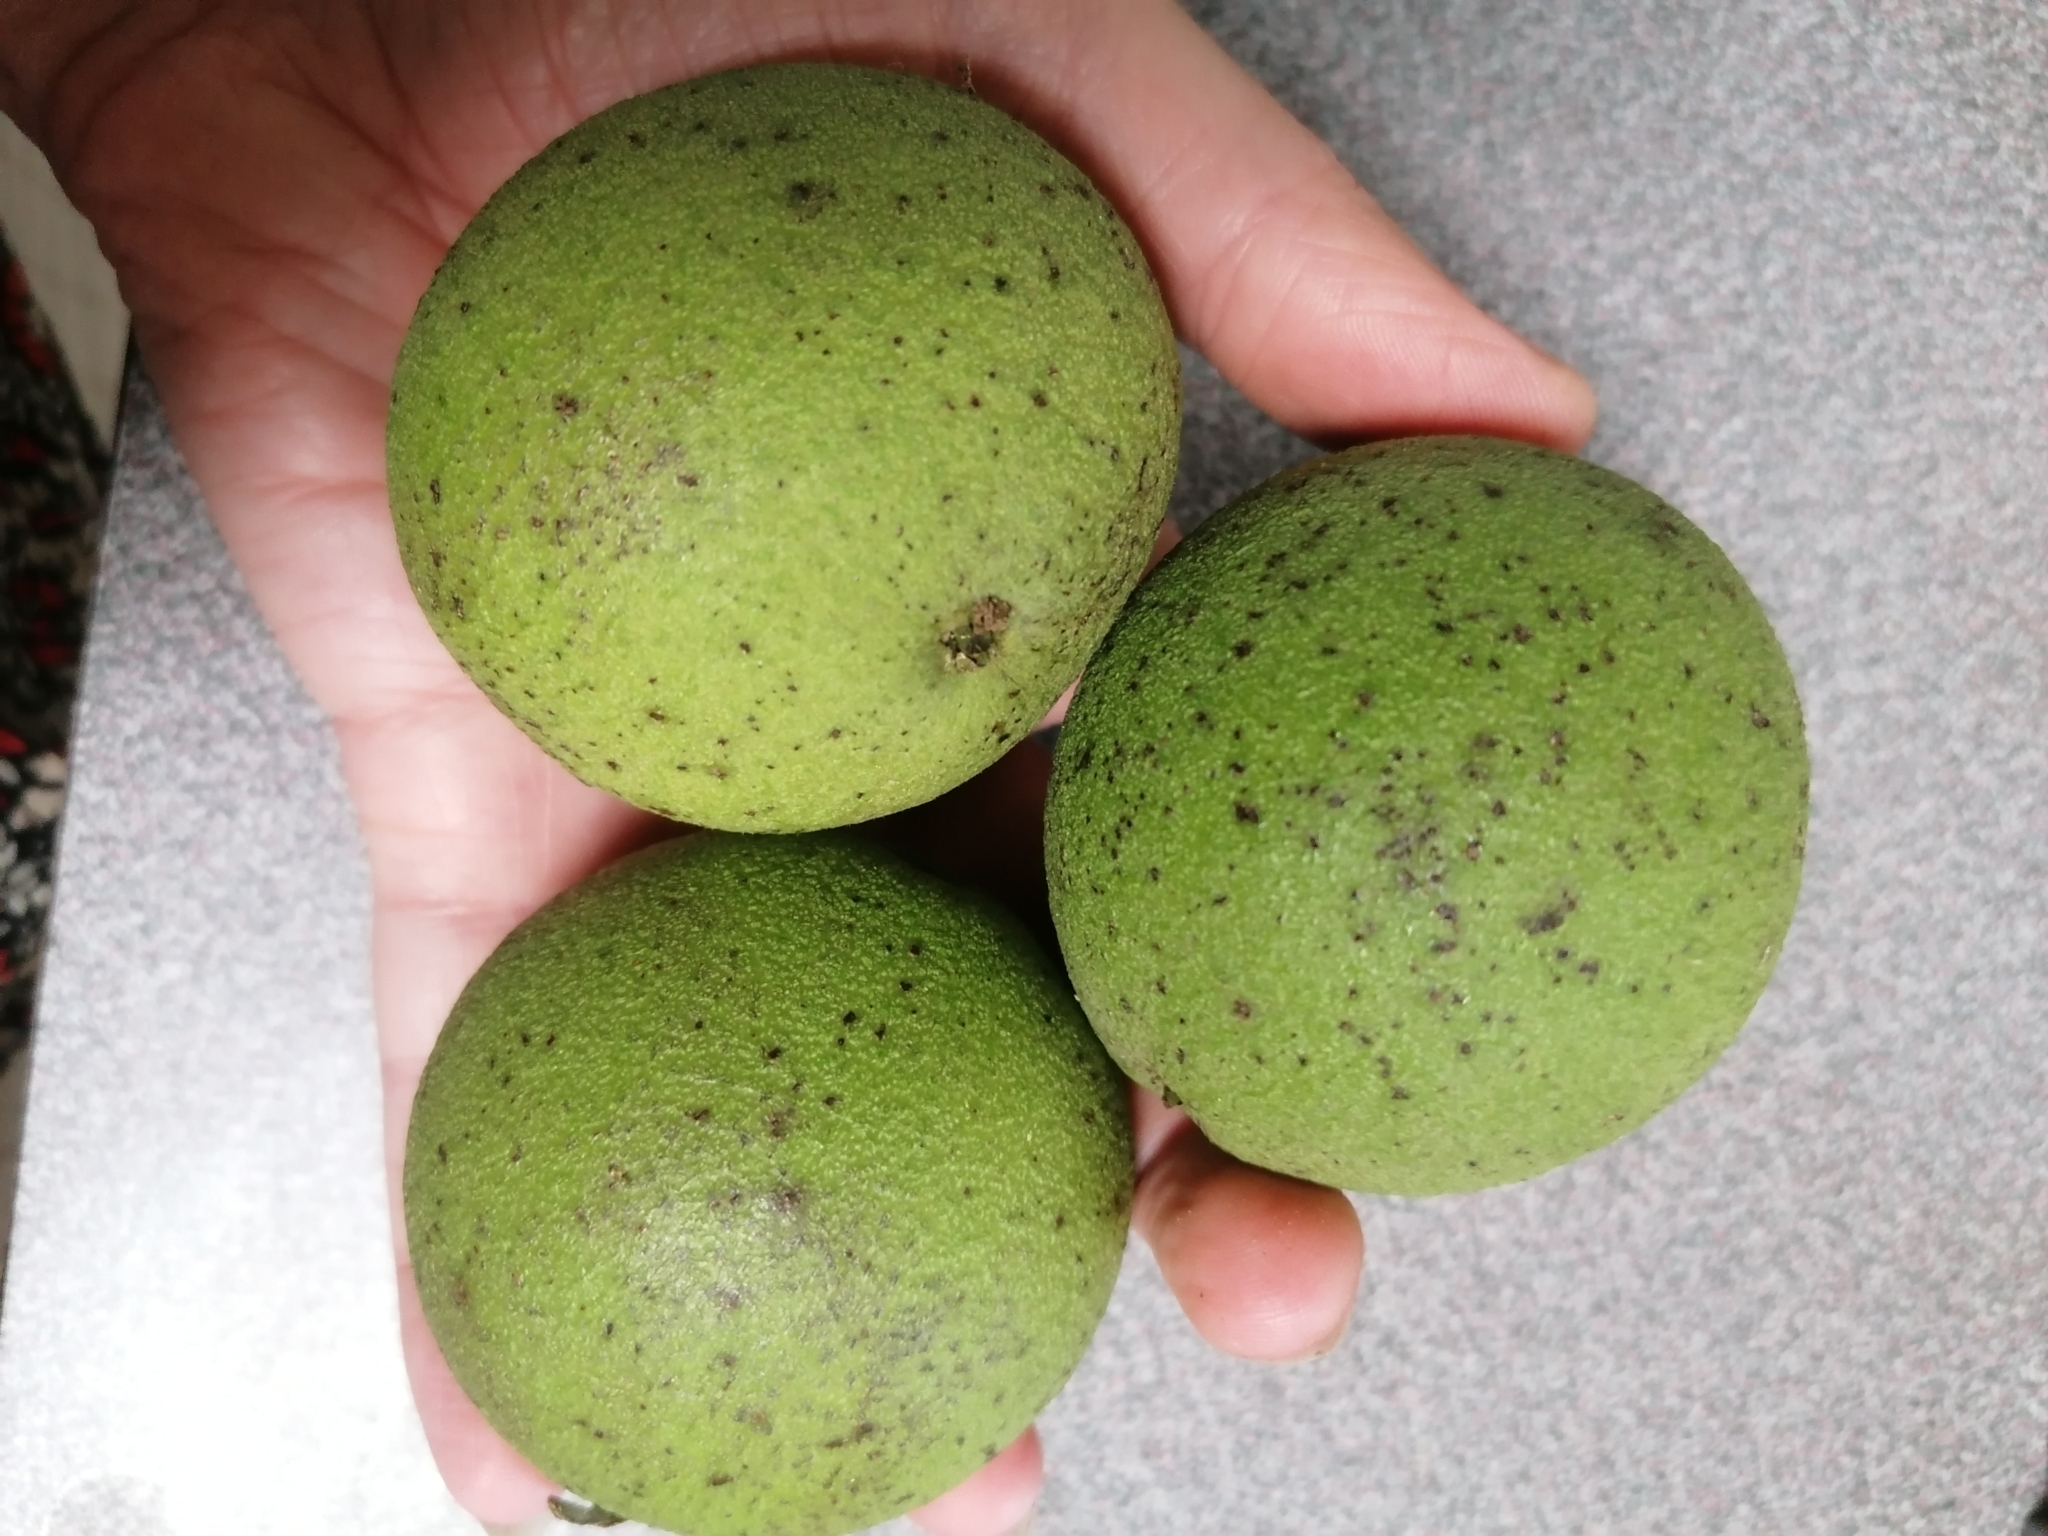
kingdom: Plantae
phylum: Tracheophyta
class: Magnoliopsida
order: Fagales
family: Juglandaceae
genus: Juglans
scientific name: Juglans nigra
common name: Black walnut
